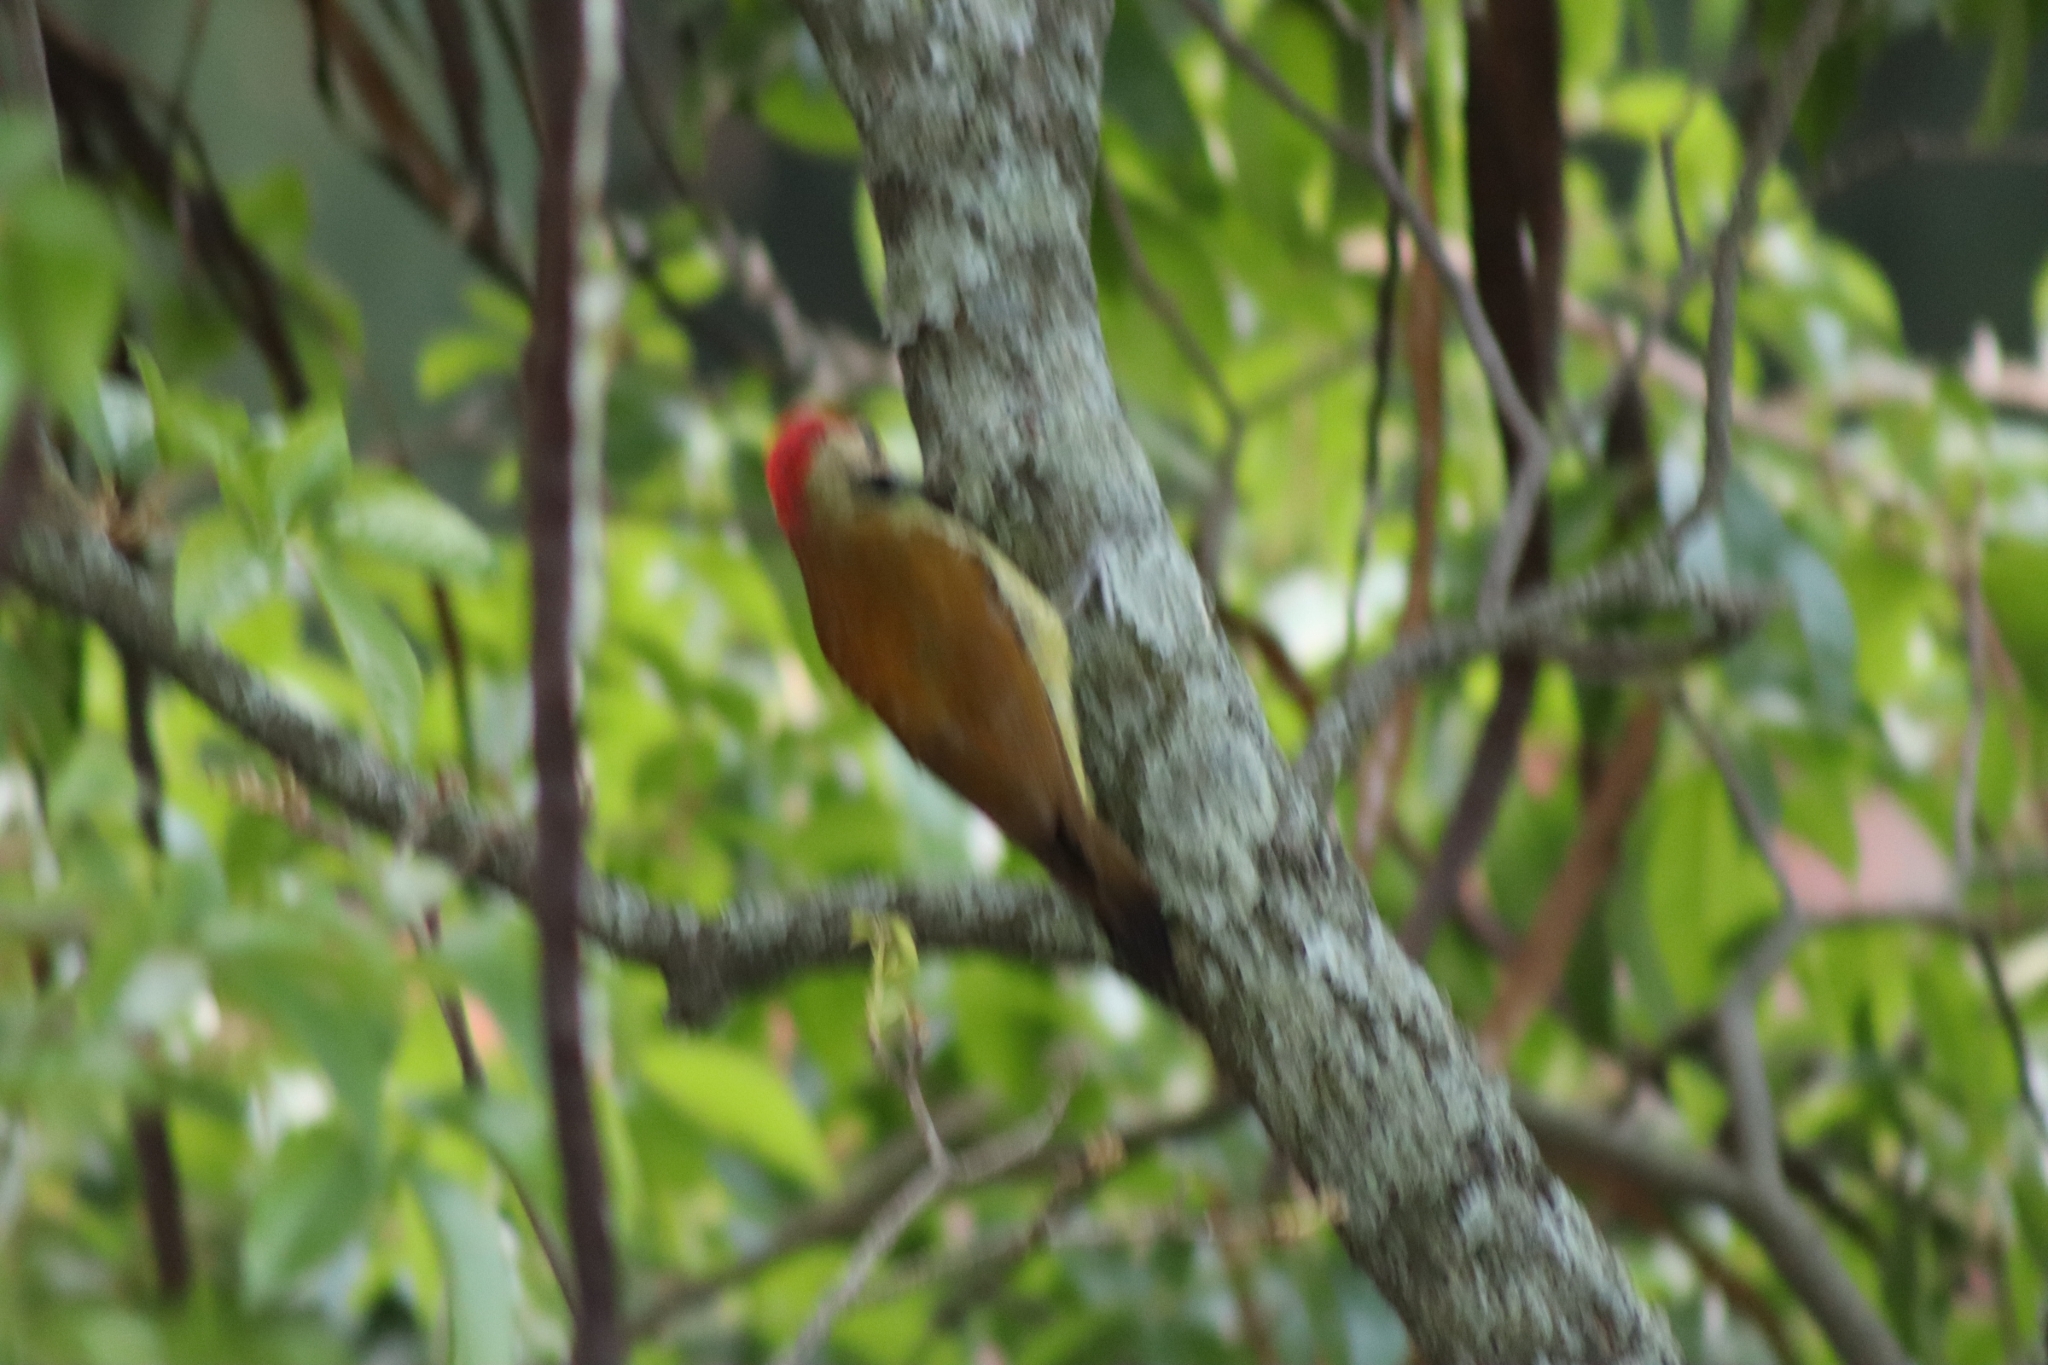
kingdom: Animalia
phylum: Chordata
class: Aves
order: Piciformes
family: Picidae
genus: Colaptes
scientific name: Colaptes rubiginosus
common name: Golden-olive woodpecker
